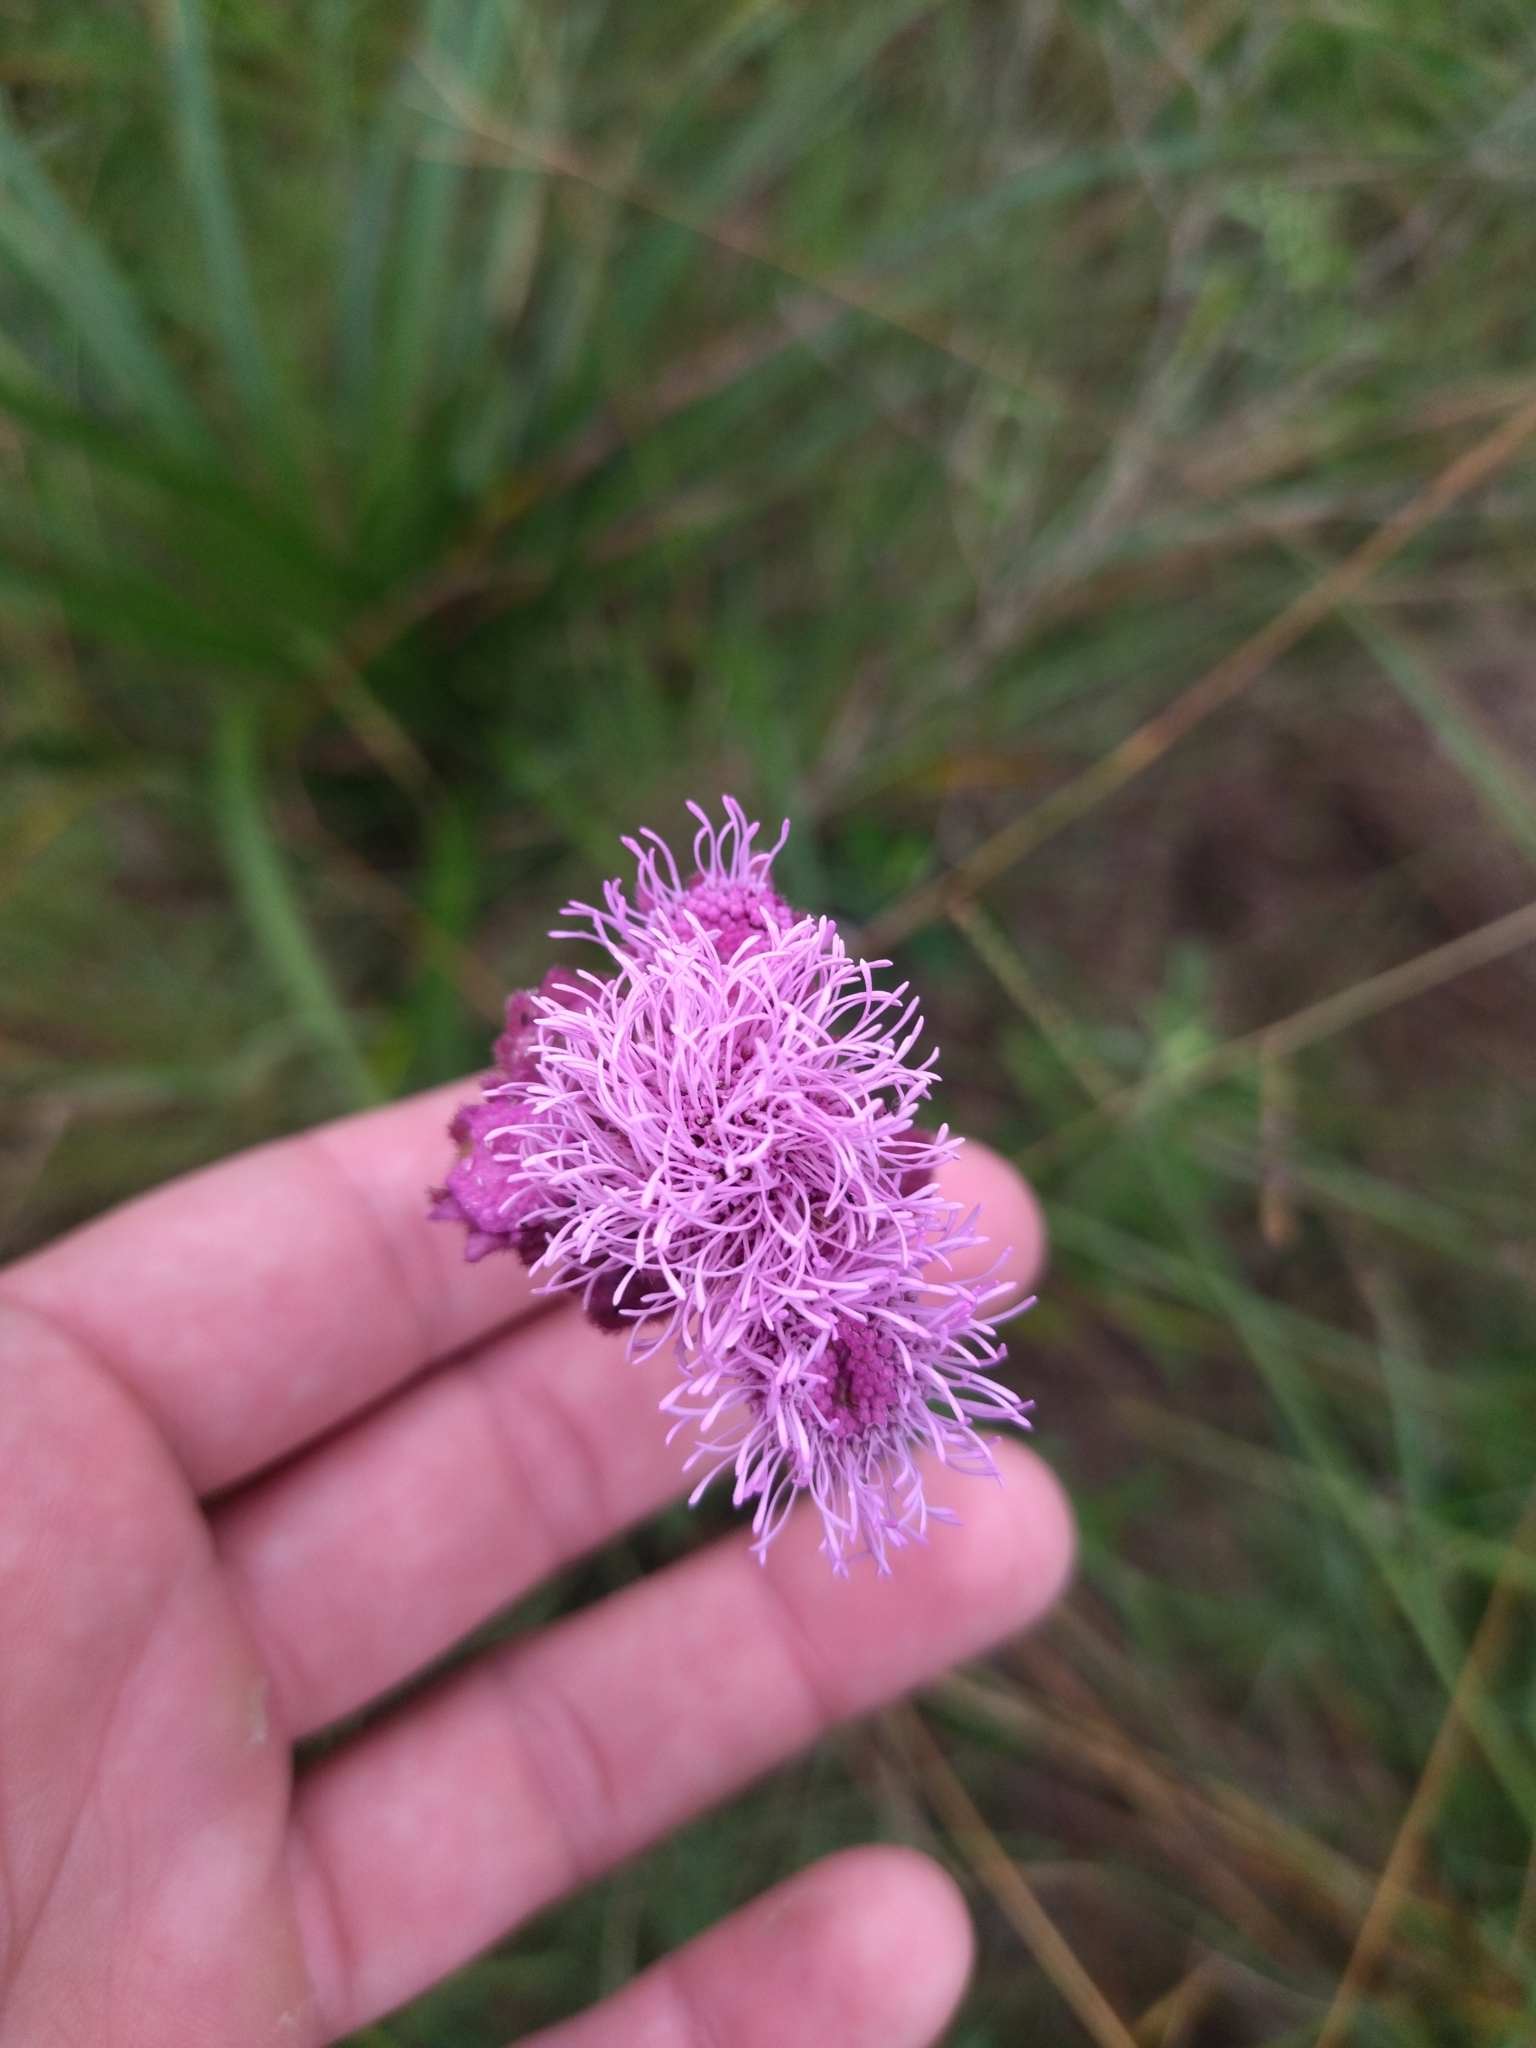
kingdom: Plantae
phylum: Tracheophyta
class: Magnoliopsida
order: Asterales
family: Asteraceae
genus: Campuloclinium
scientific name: Campuloclinium macrocephalum
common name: Pompomweed
